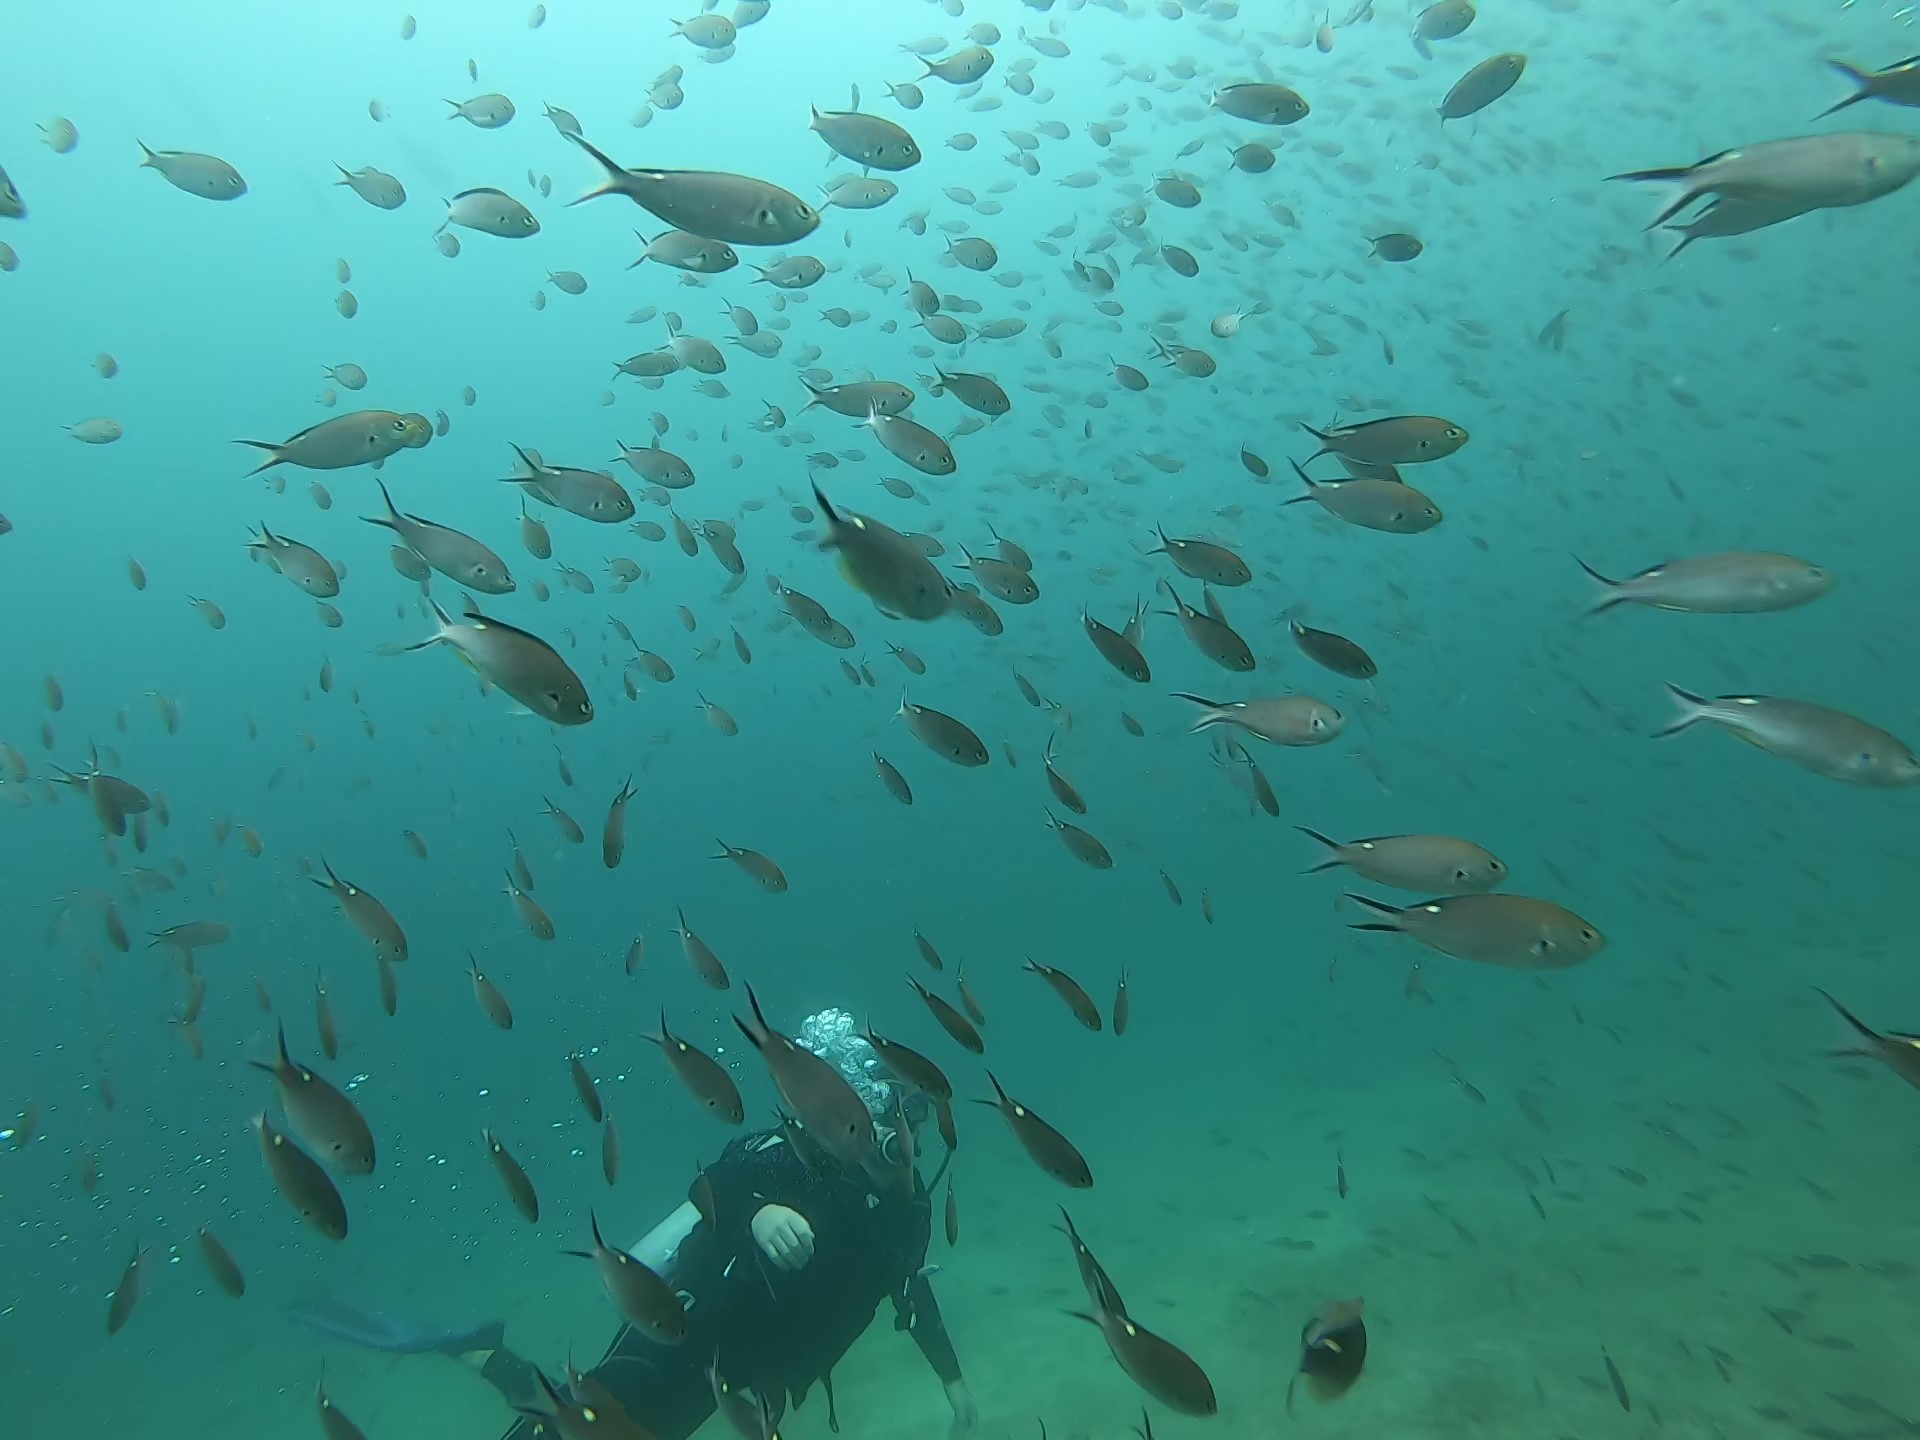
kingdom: Animalia
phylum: Chordata
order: Perciformes
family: Pomacentridae
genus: Chromis
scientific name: Chromis atrilobata
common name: Scissortail damselfish
